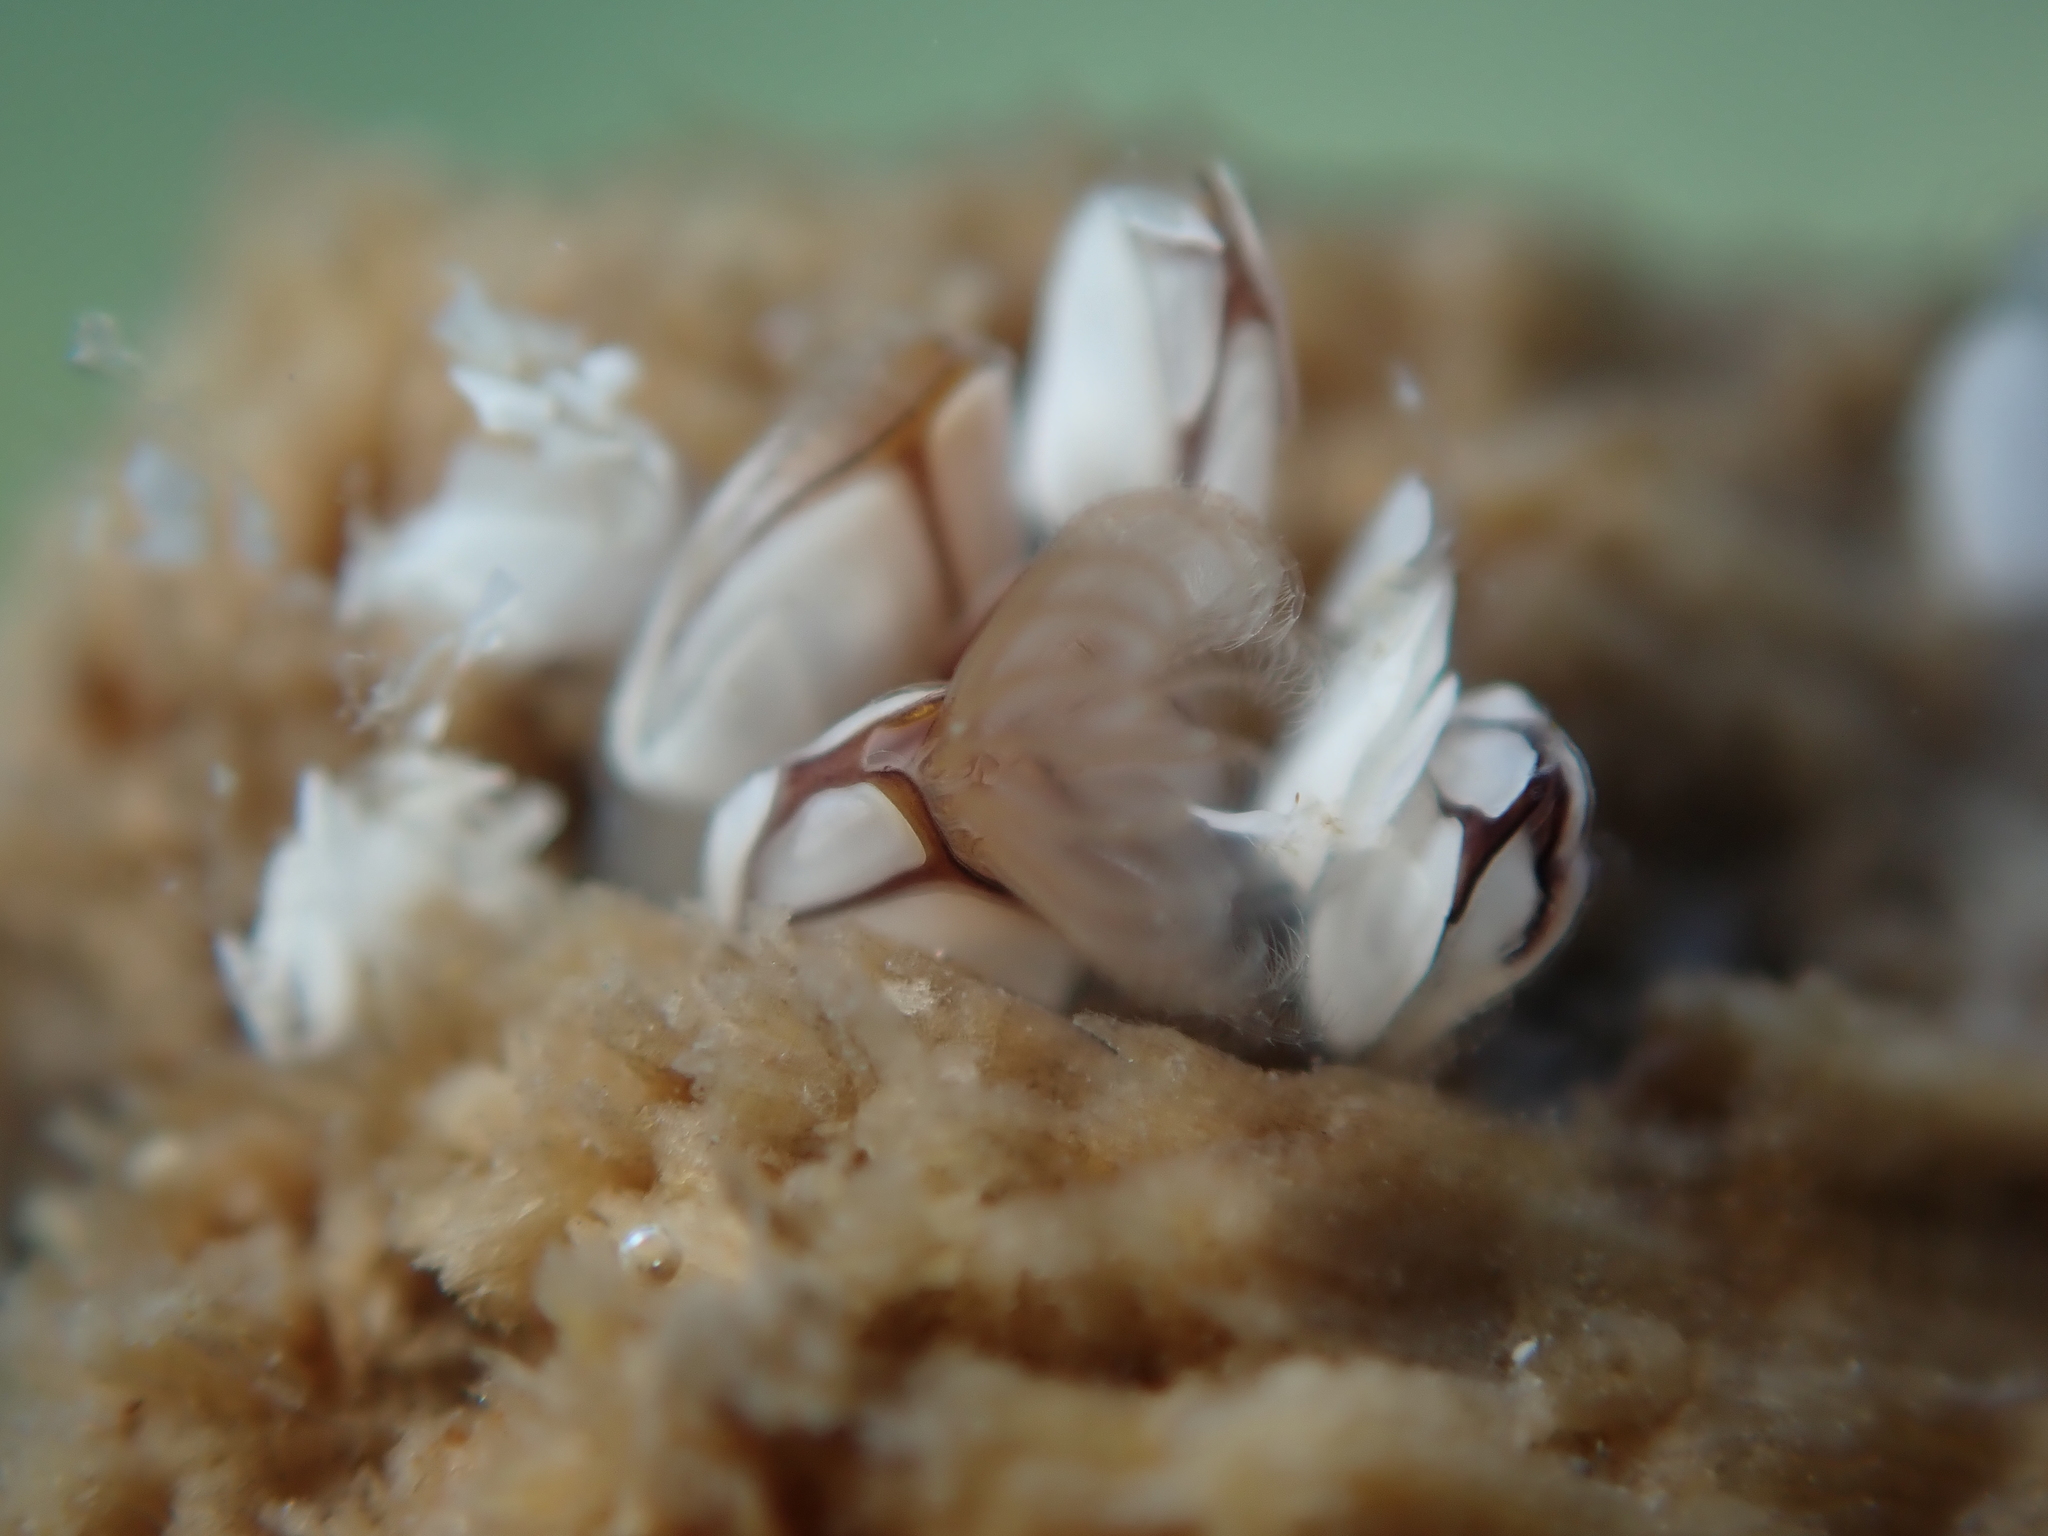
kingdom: Animalia
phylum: Arthropoda
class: Maxillopoda
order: Pedunculata
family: Lepadidae
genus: Lepas
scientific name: Lepas australis
